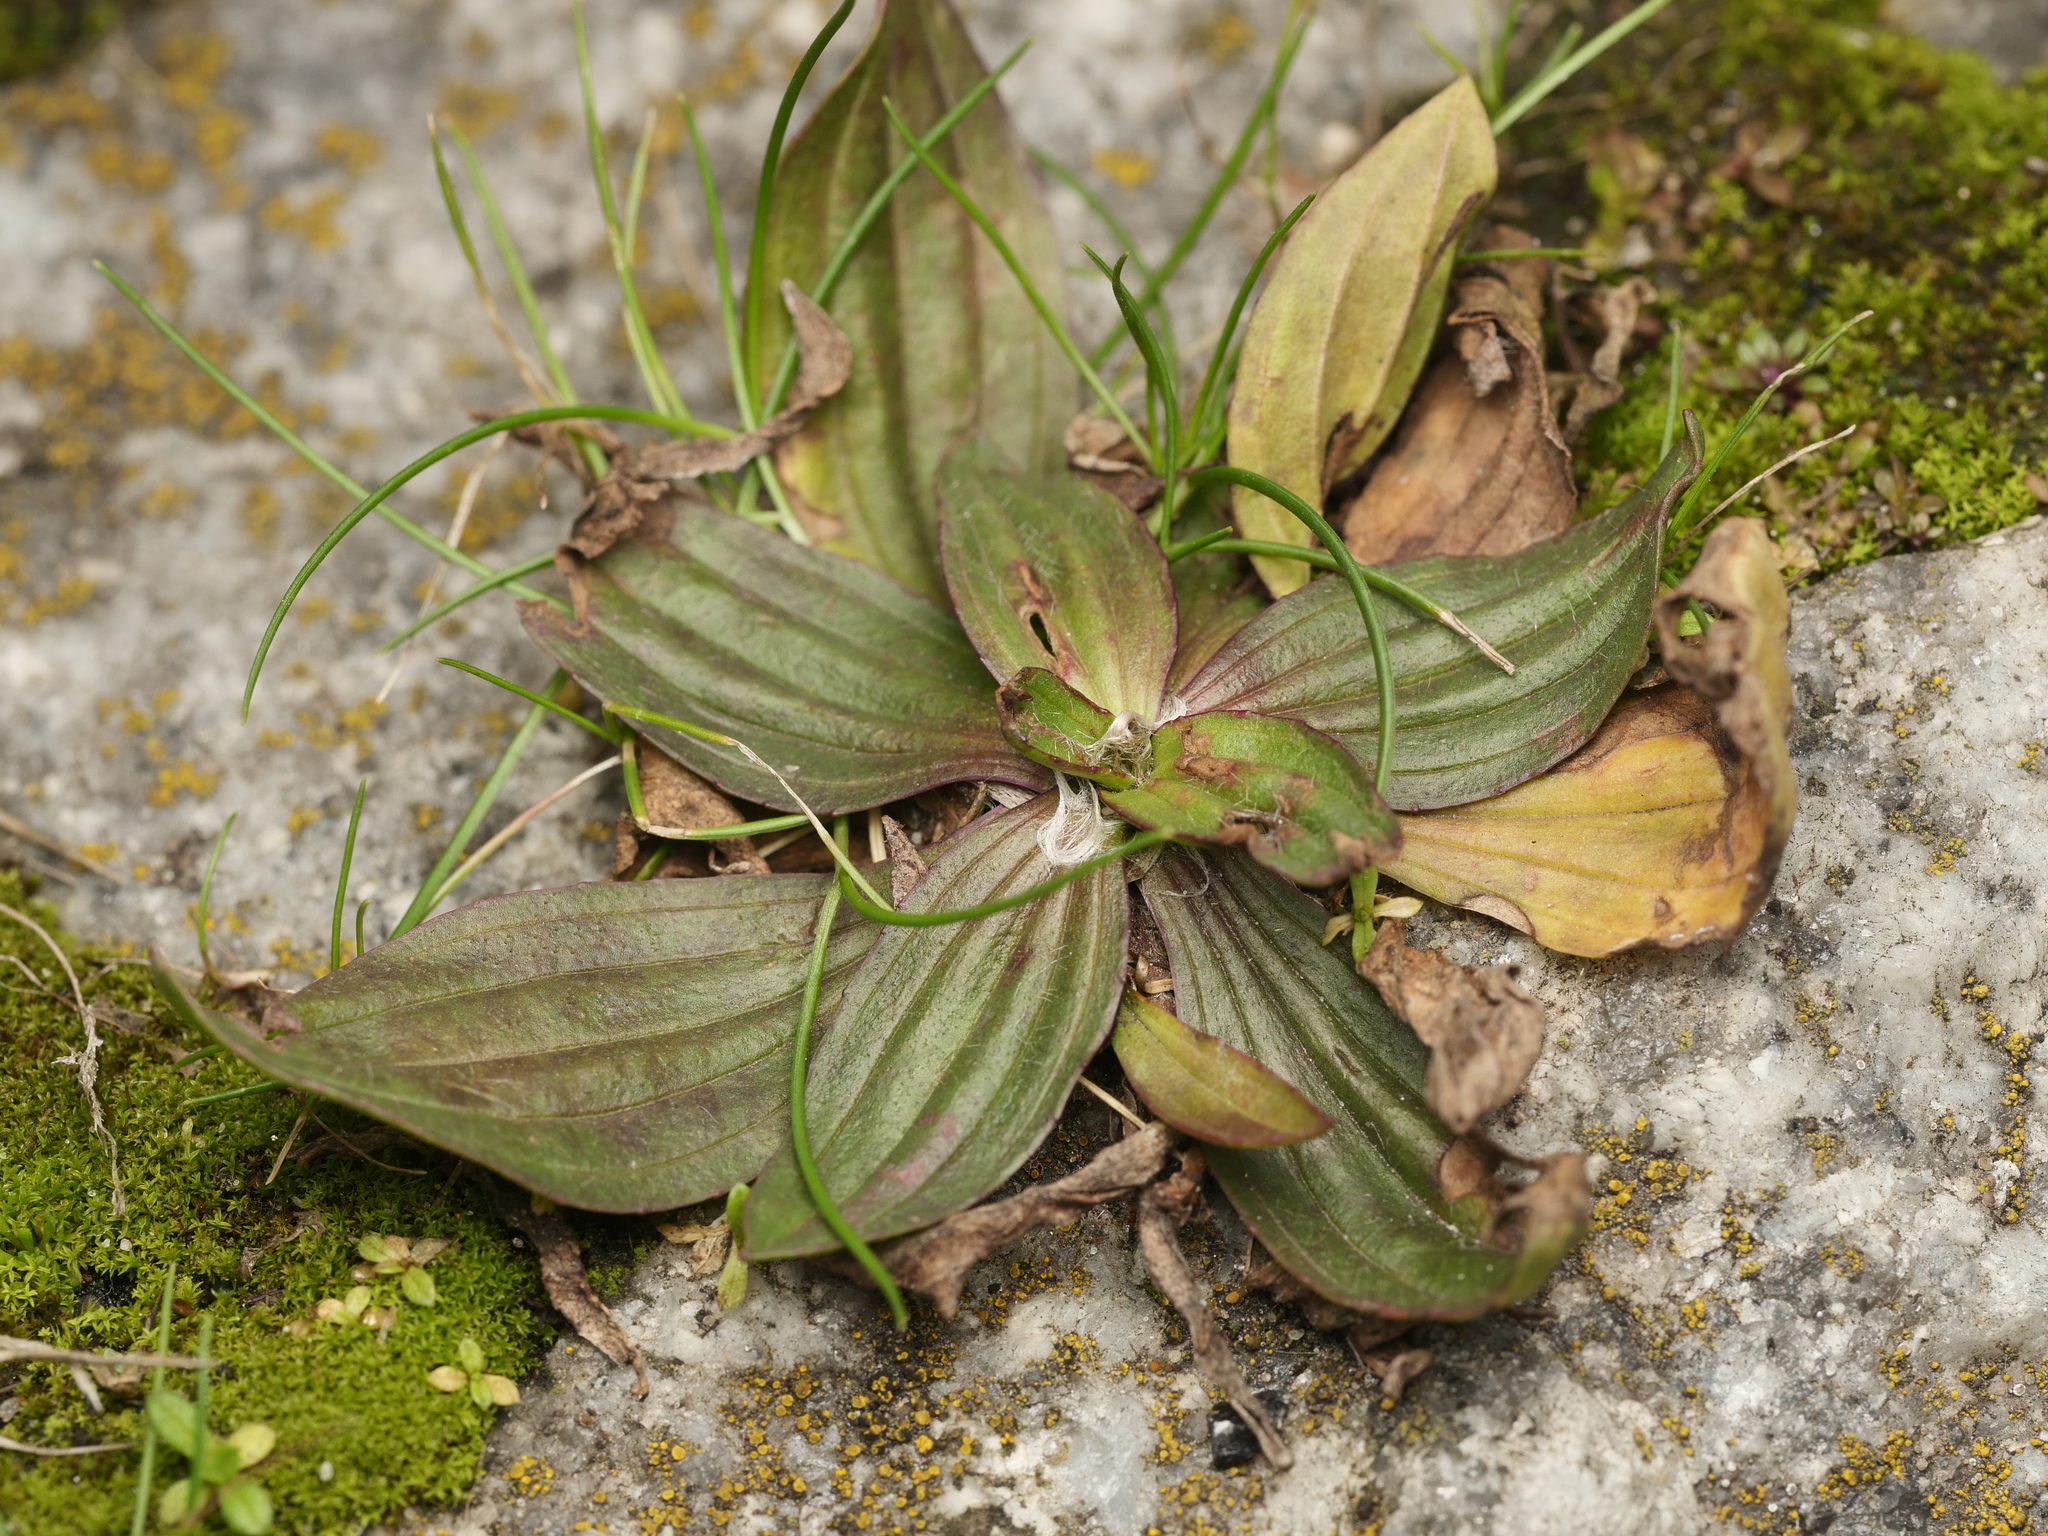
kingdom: Plantae
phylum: Tracheophyta
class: Magnoliopsida
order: Lamiales
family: Plantaginaceae
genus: Plantago
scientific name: Plantago lanceolata
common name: Ribwort plantain
